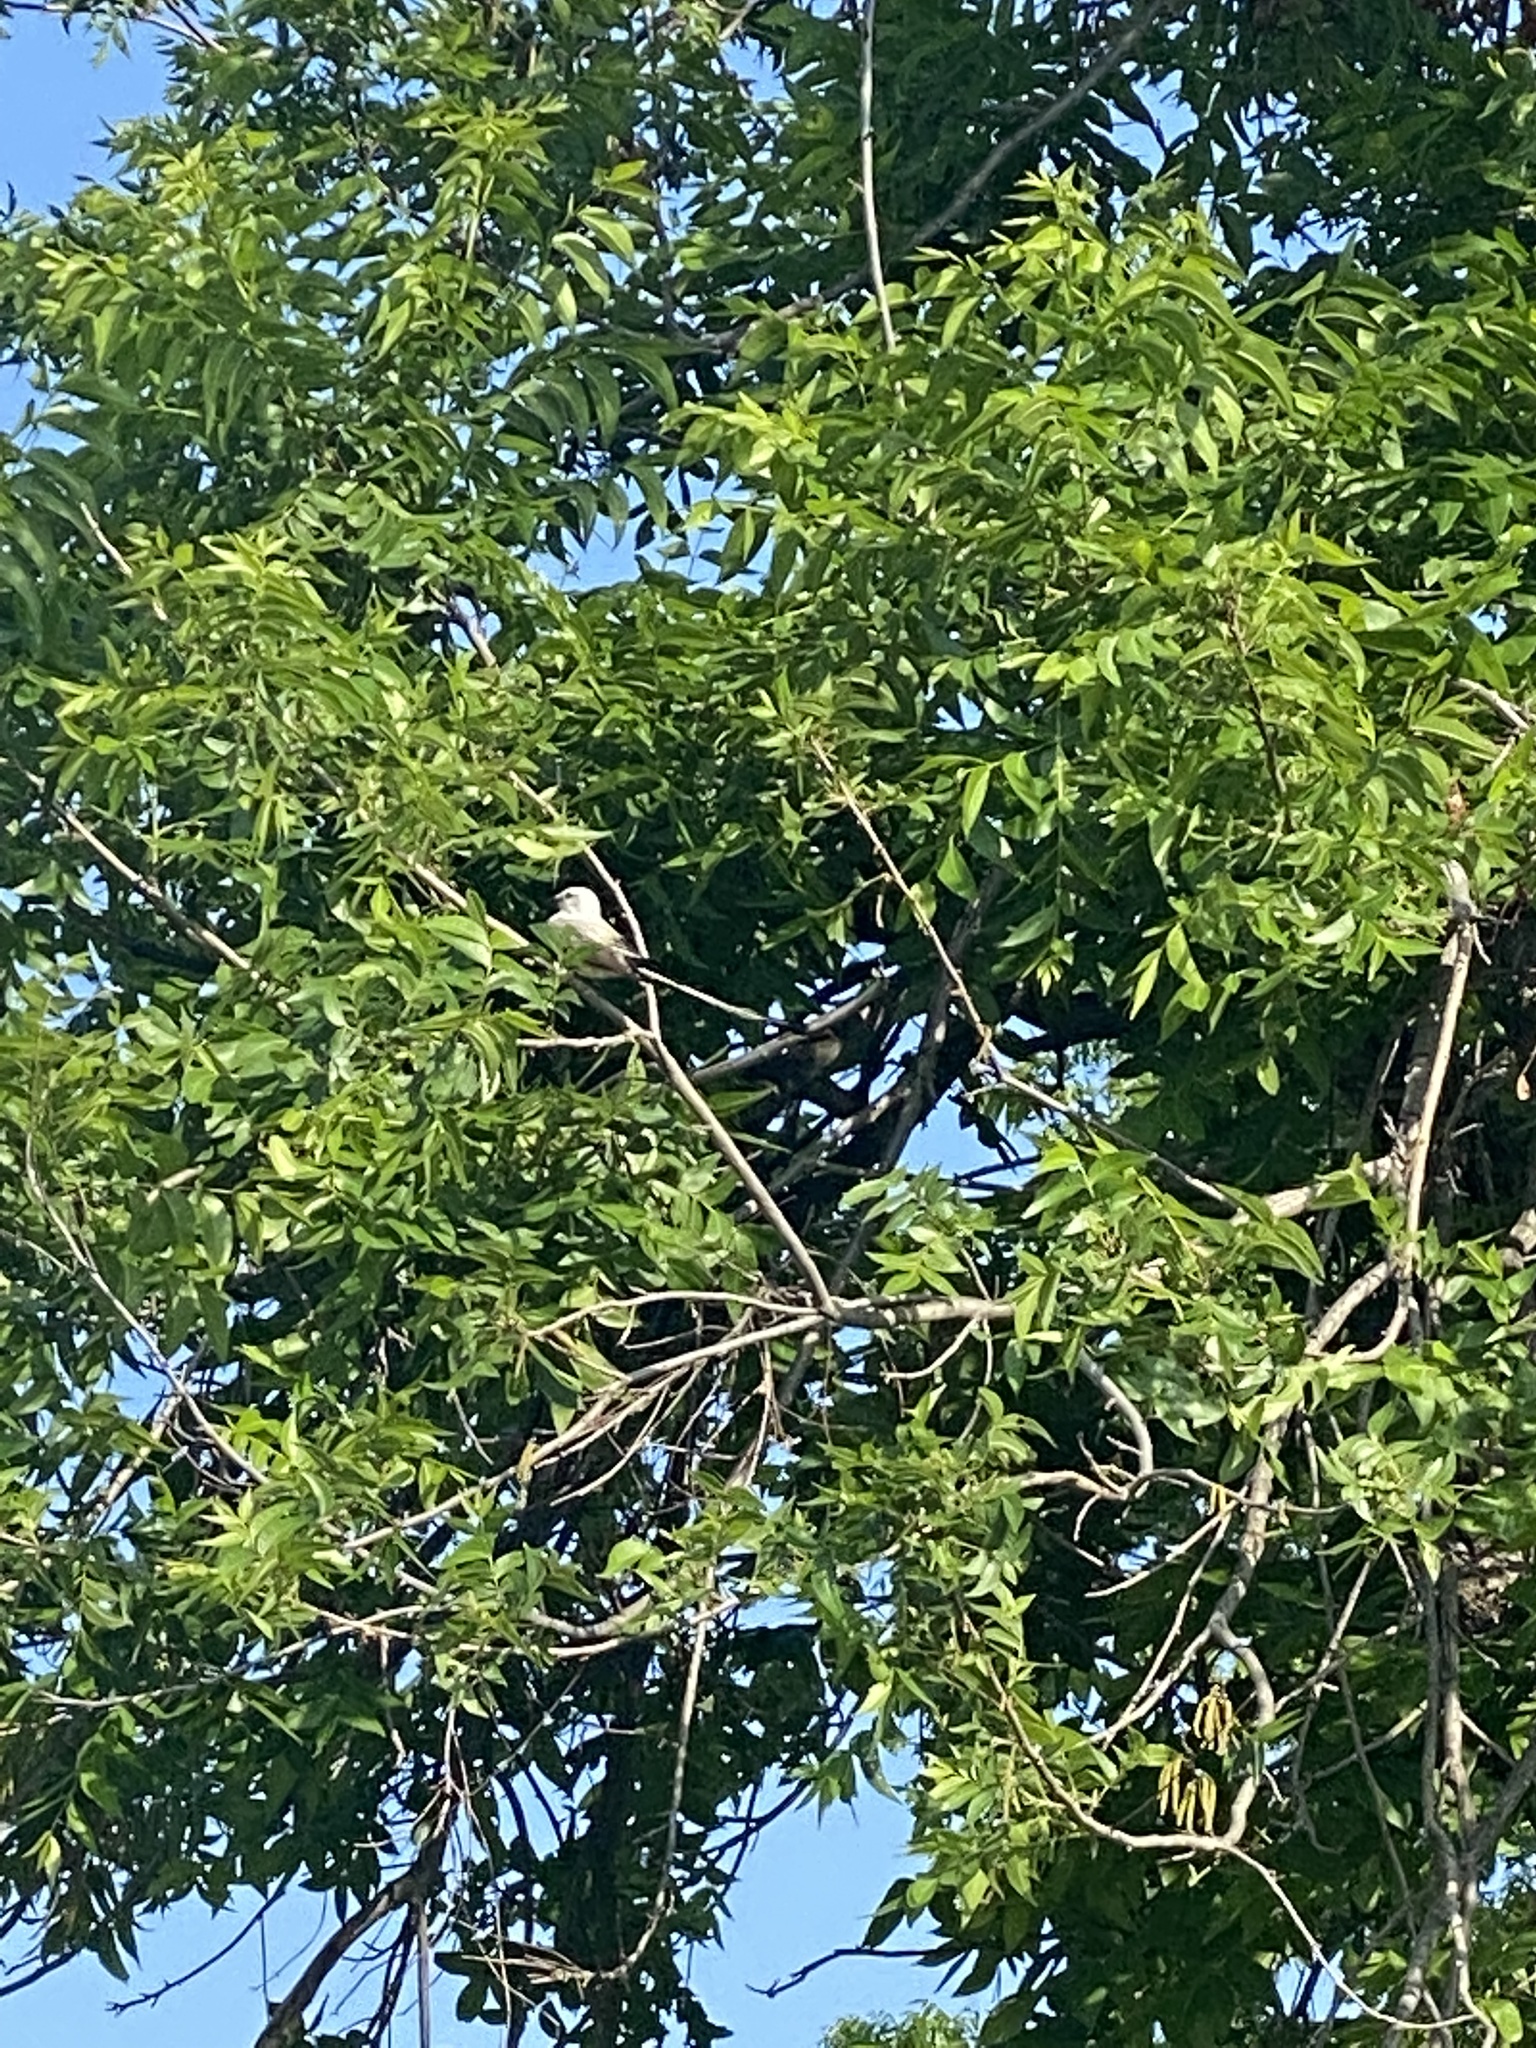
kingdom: Animalia
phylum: Chordata
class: Aves
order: Passeriformes
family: Tyrannidae
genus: Tyrannus
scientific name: Tyrannus forficatus
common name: Scissor-tailed flycatcher
